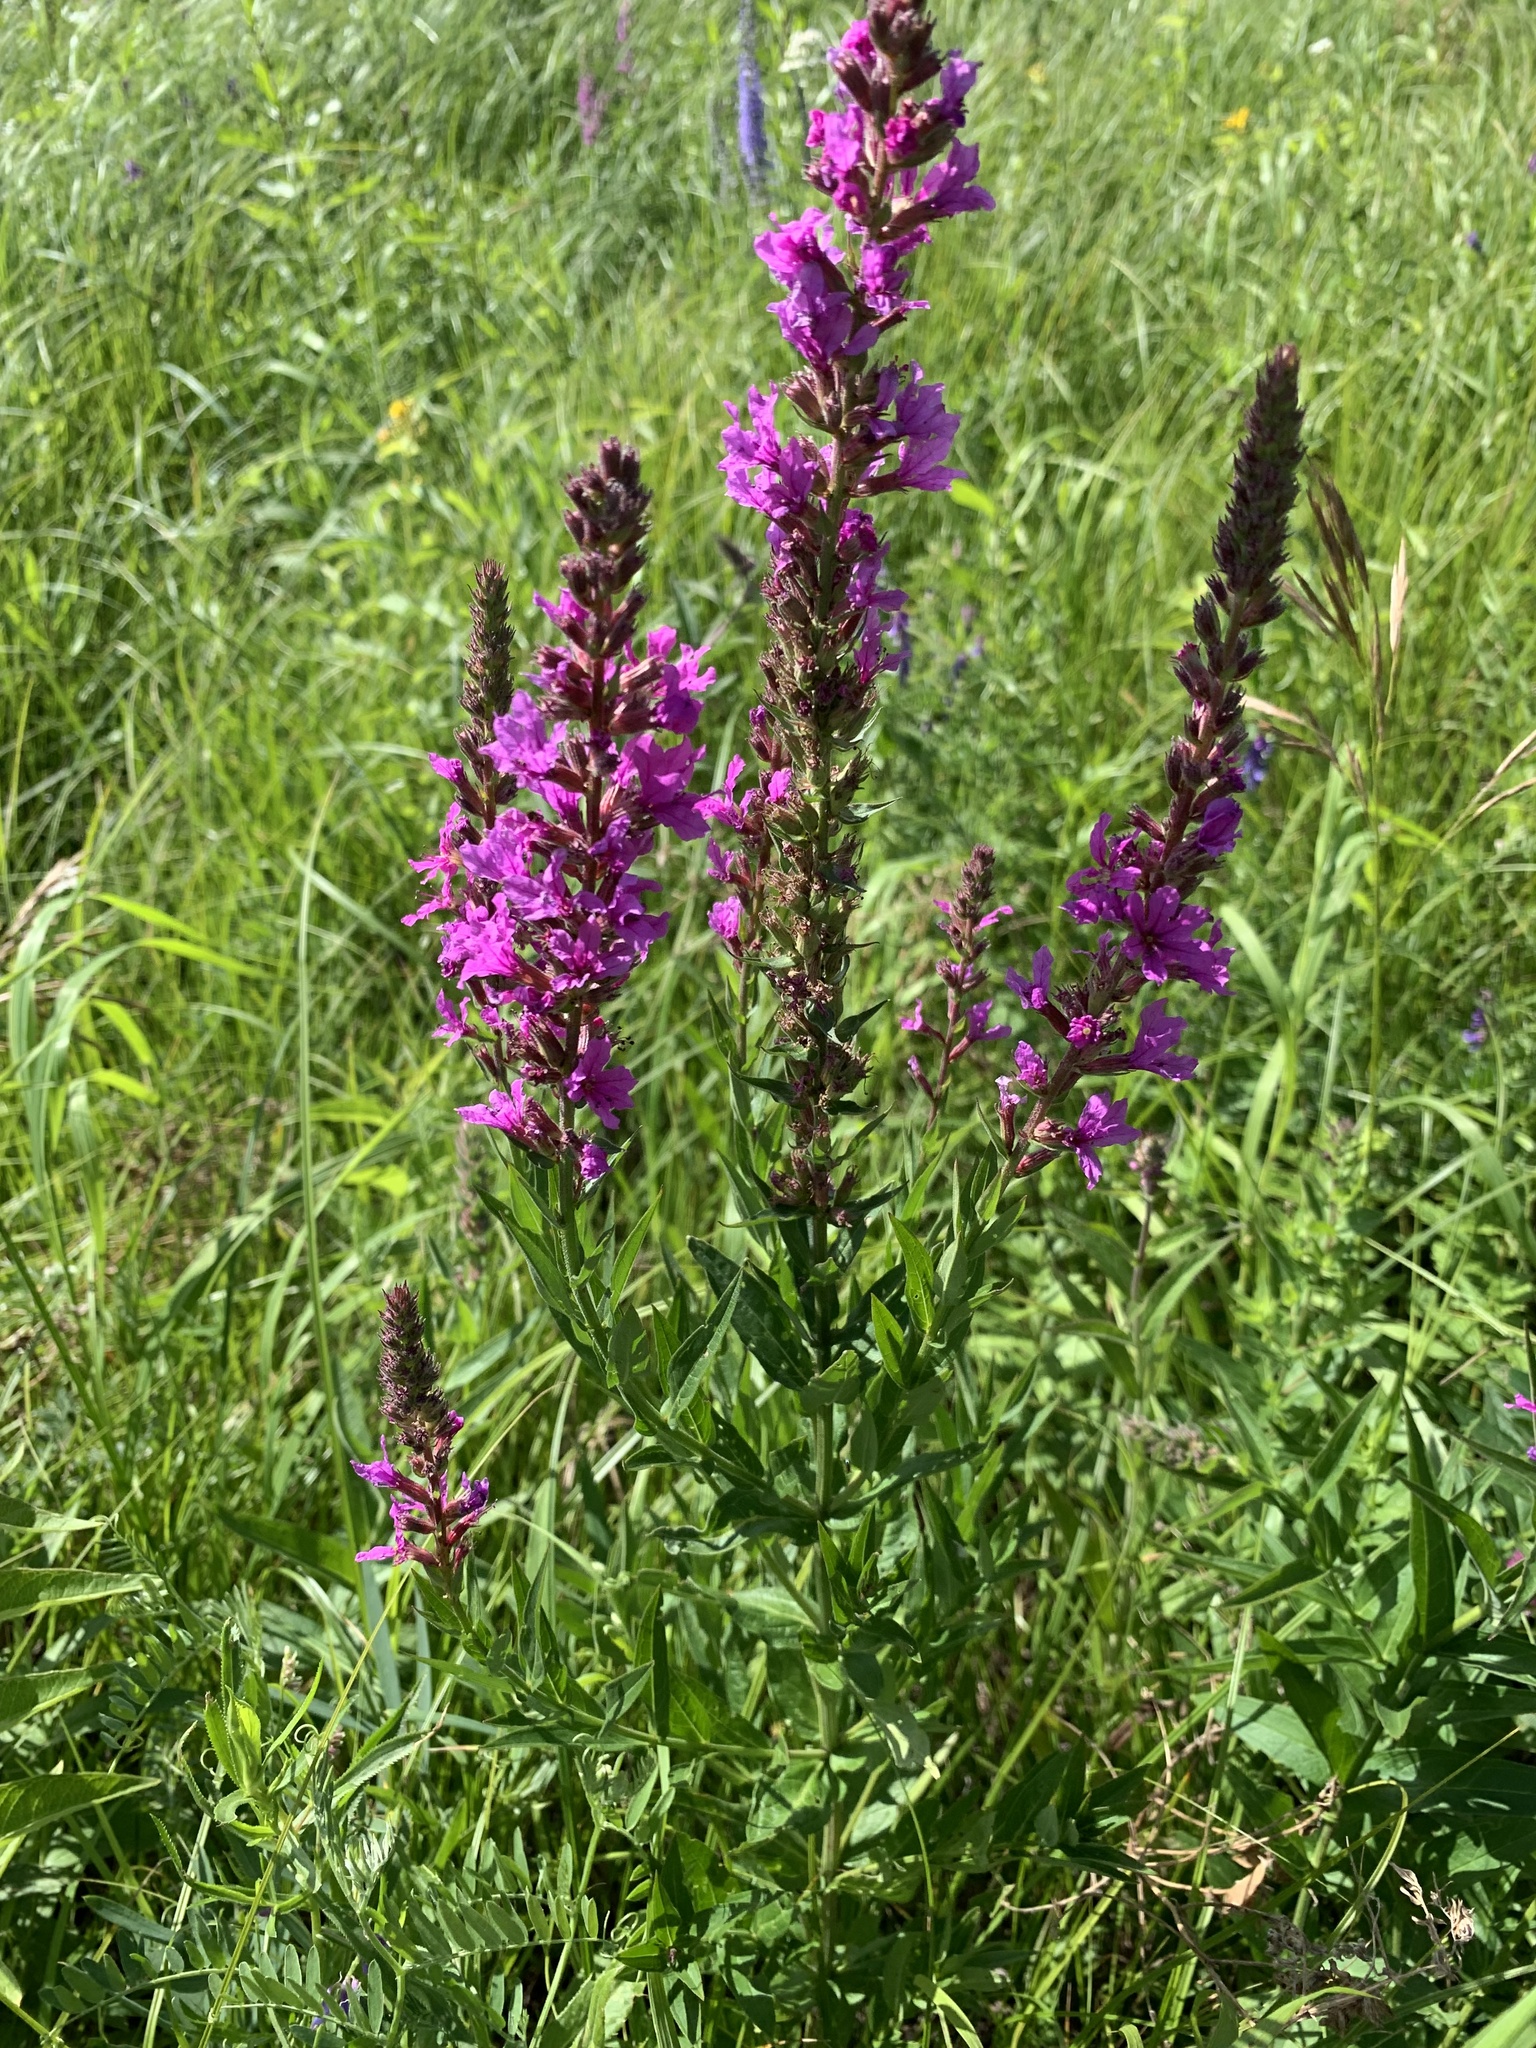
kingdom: Plantae
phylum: Tracheophyta
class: Magnoliopsida
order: Myrtales
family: Lythraceae
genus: Lythrum
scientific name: Lythrum salicaria
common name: Purple loosestrife
